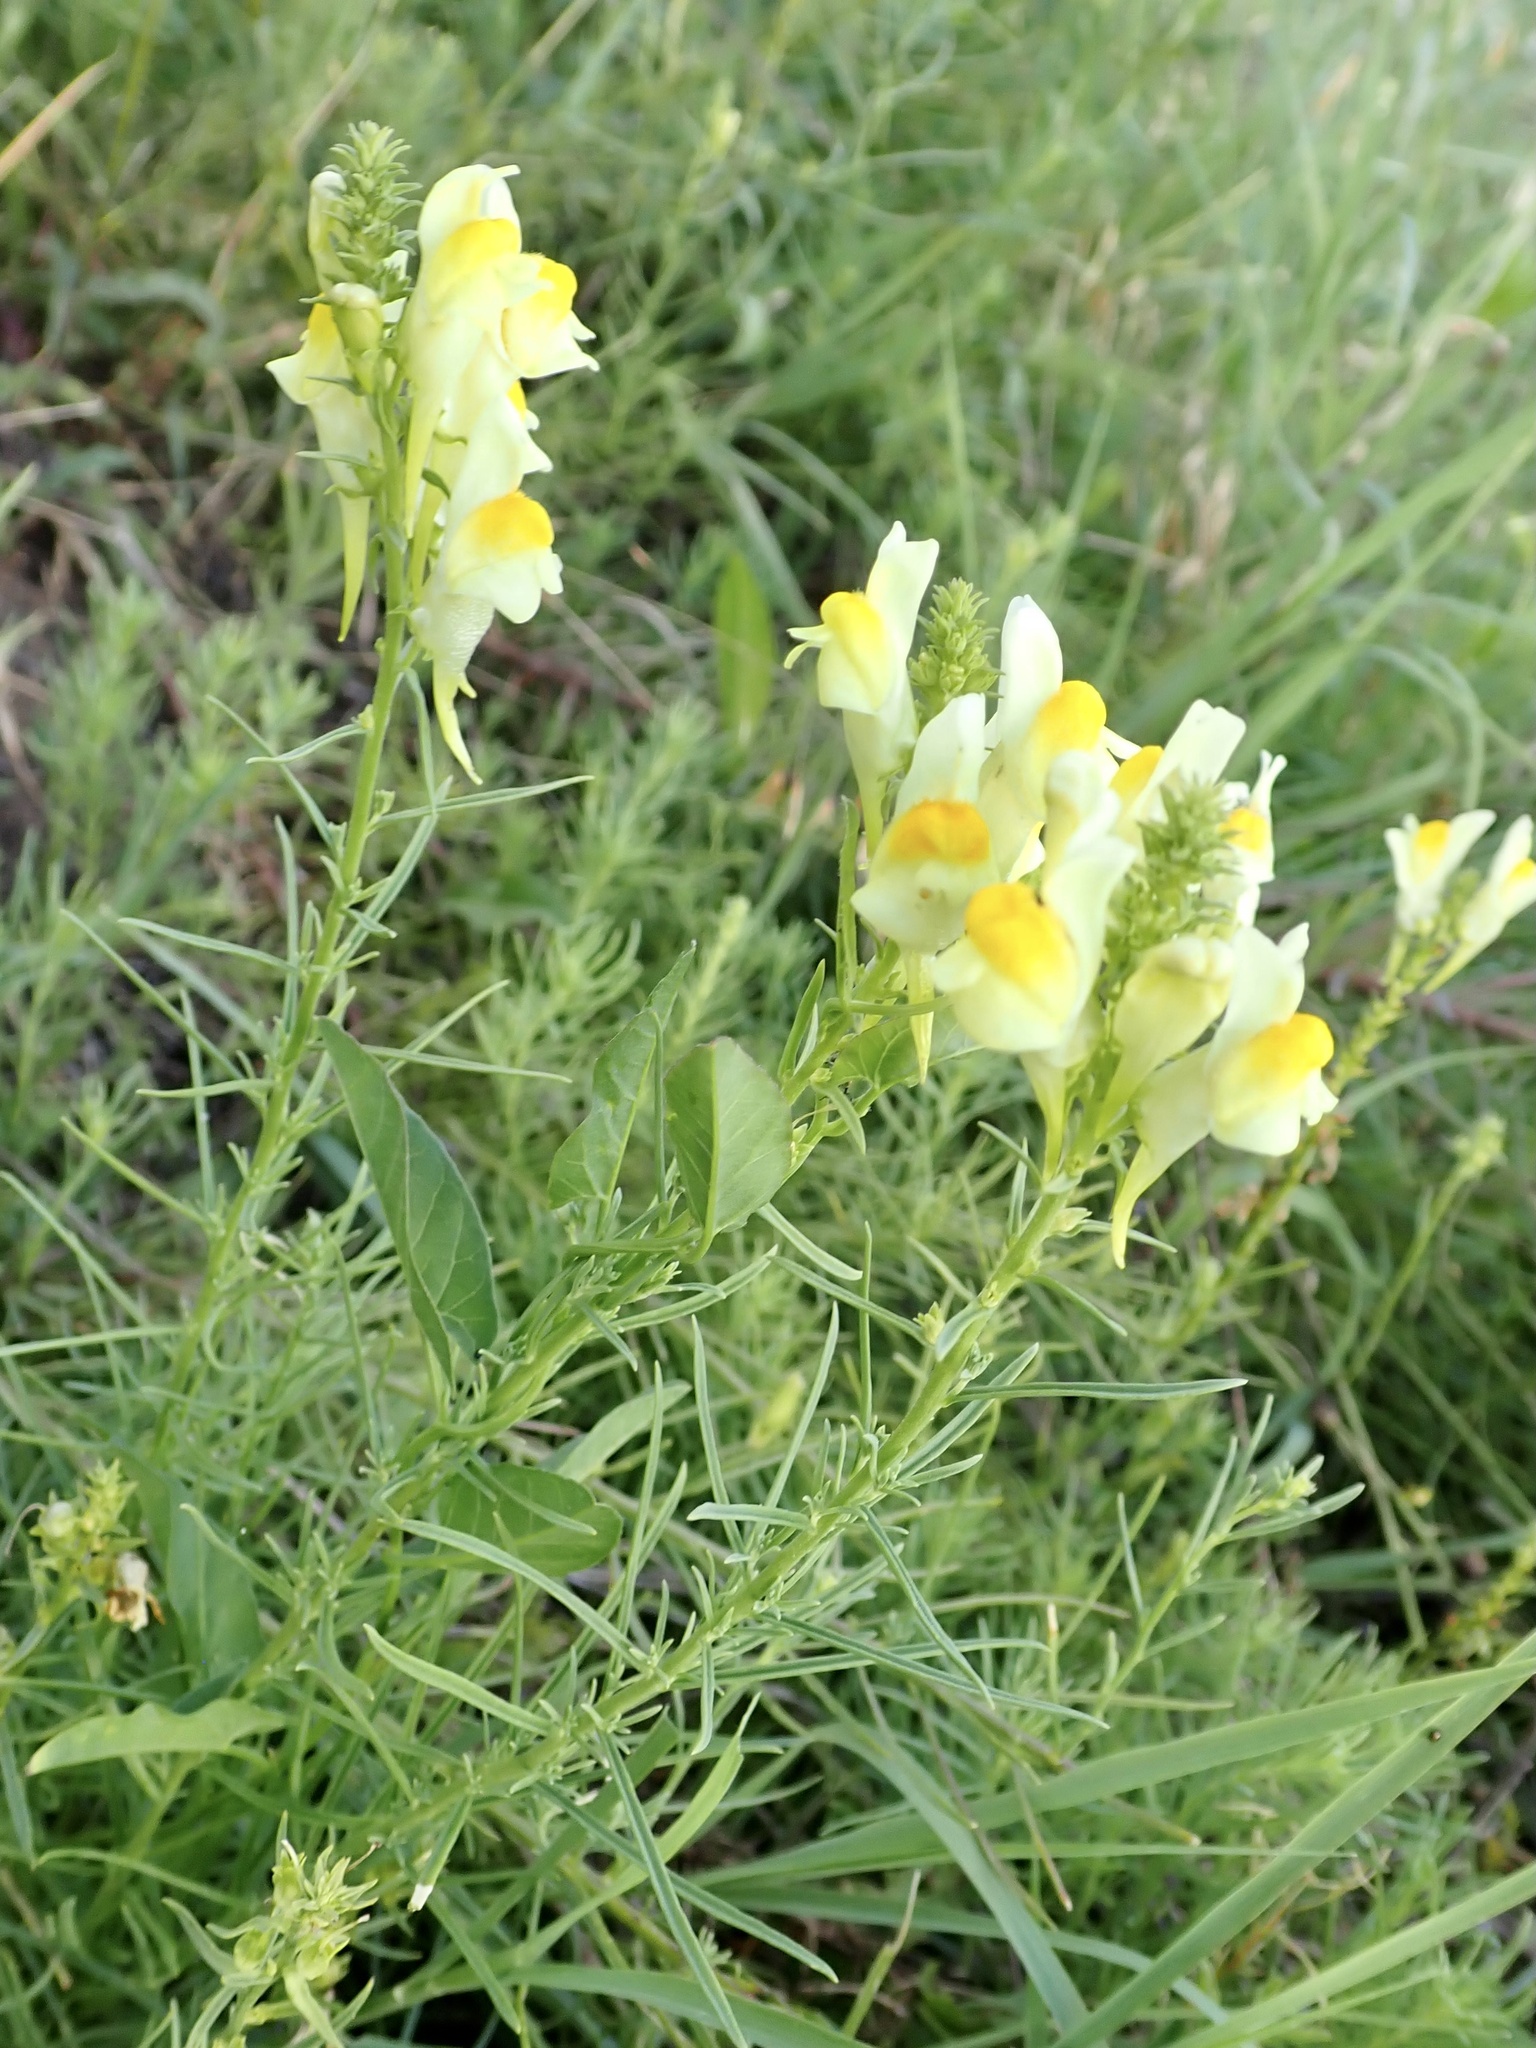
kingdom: Plantae
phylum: Tracheophyta
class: Magnoliopsida
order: Lamiales
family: Plantaginaceae
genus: Linaria
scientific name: Linaria vulgaris
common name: Butter and eggs
